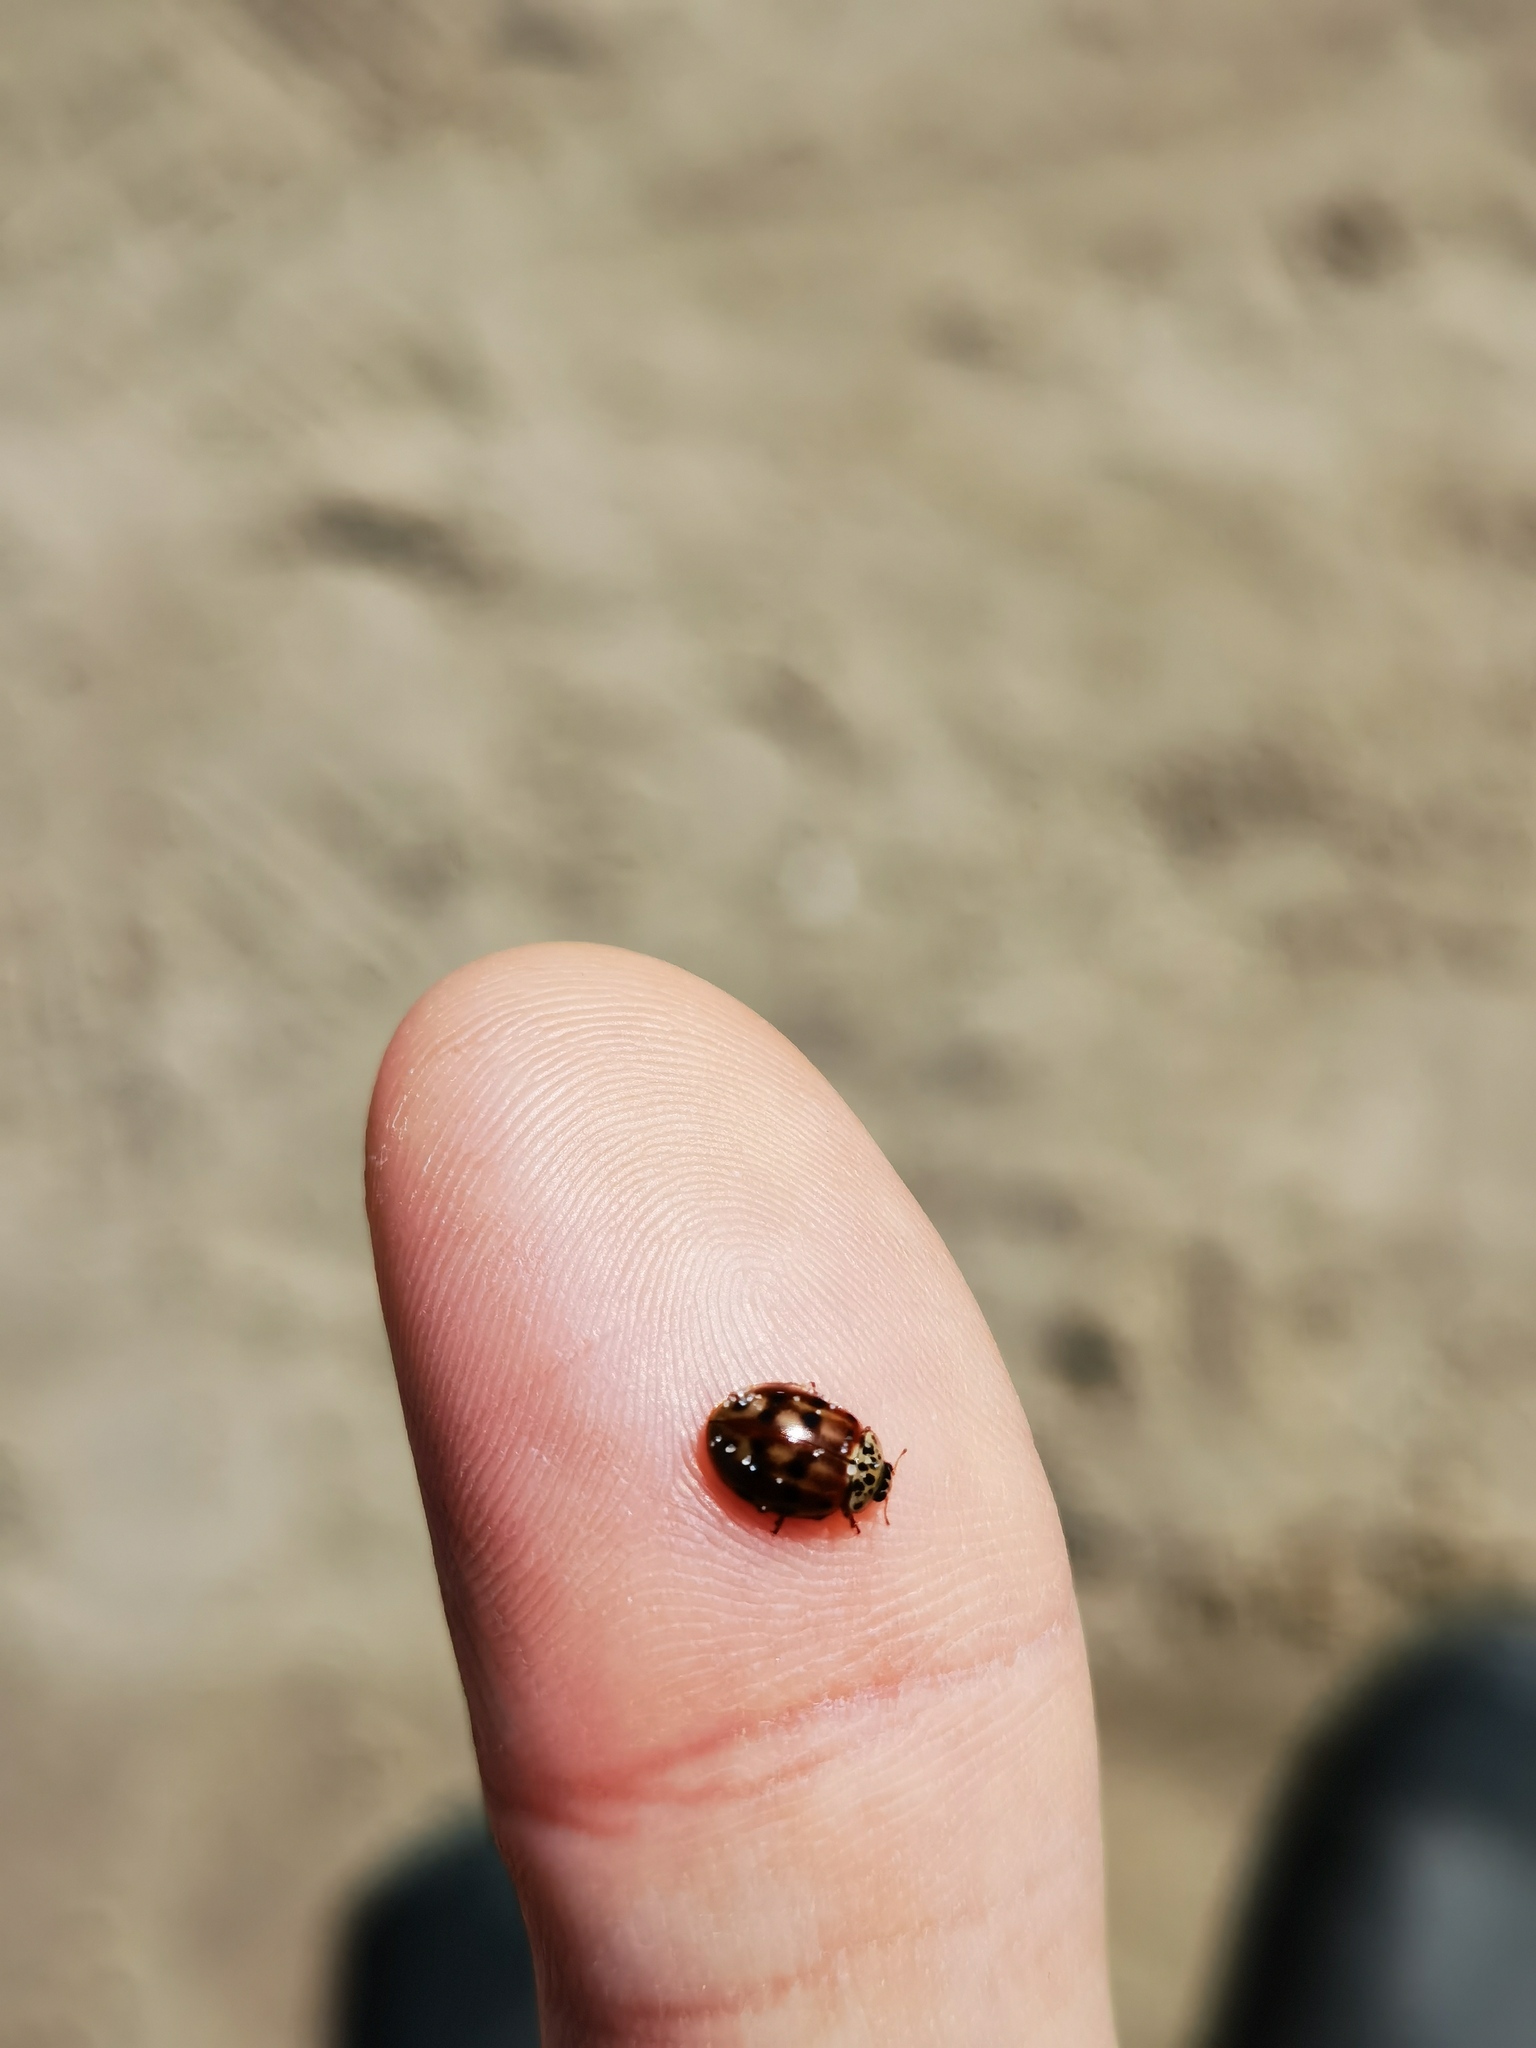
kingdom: Animalia
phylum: Arthropoda
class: Insecta
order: Coleoptera
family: Coccinellidae
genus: Harmonia
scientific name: Harmonia quadripunctata
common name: Cream-streaked ladybird
